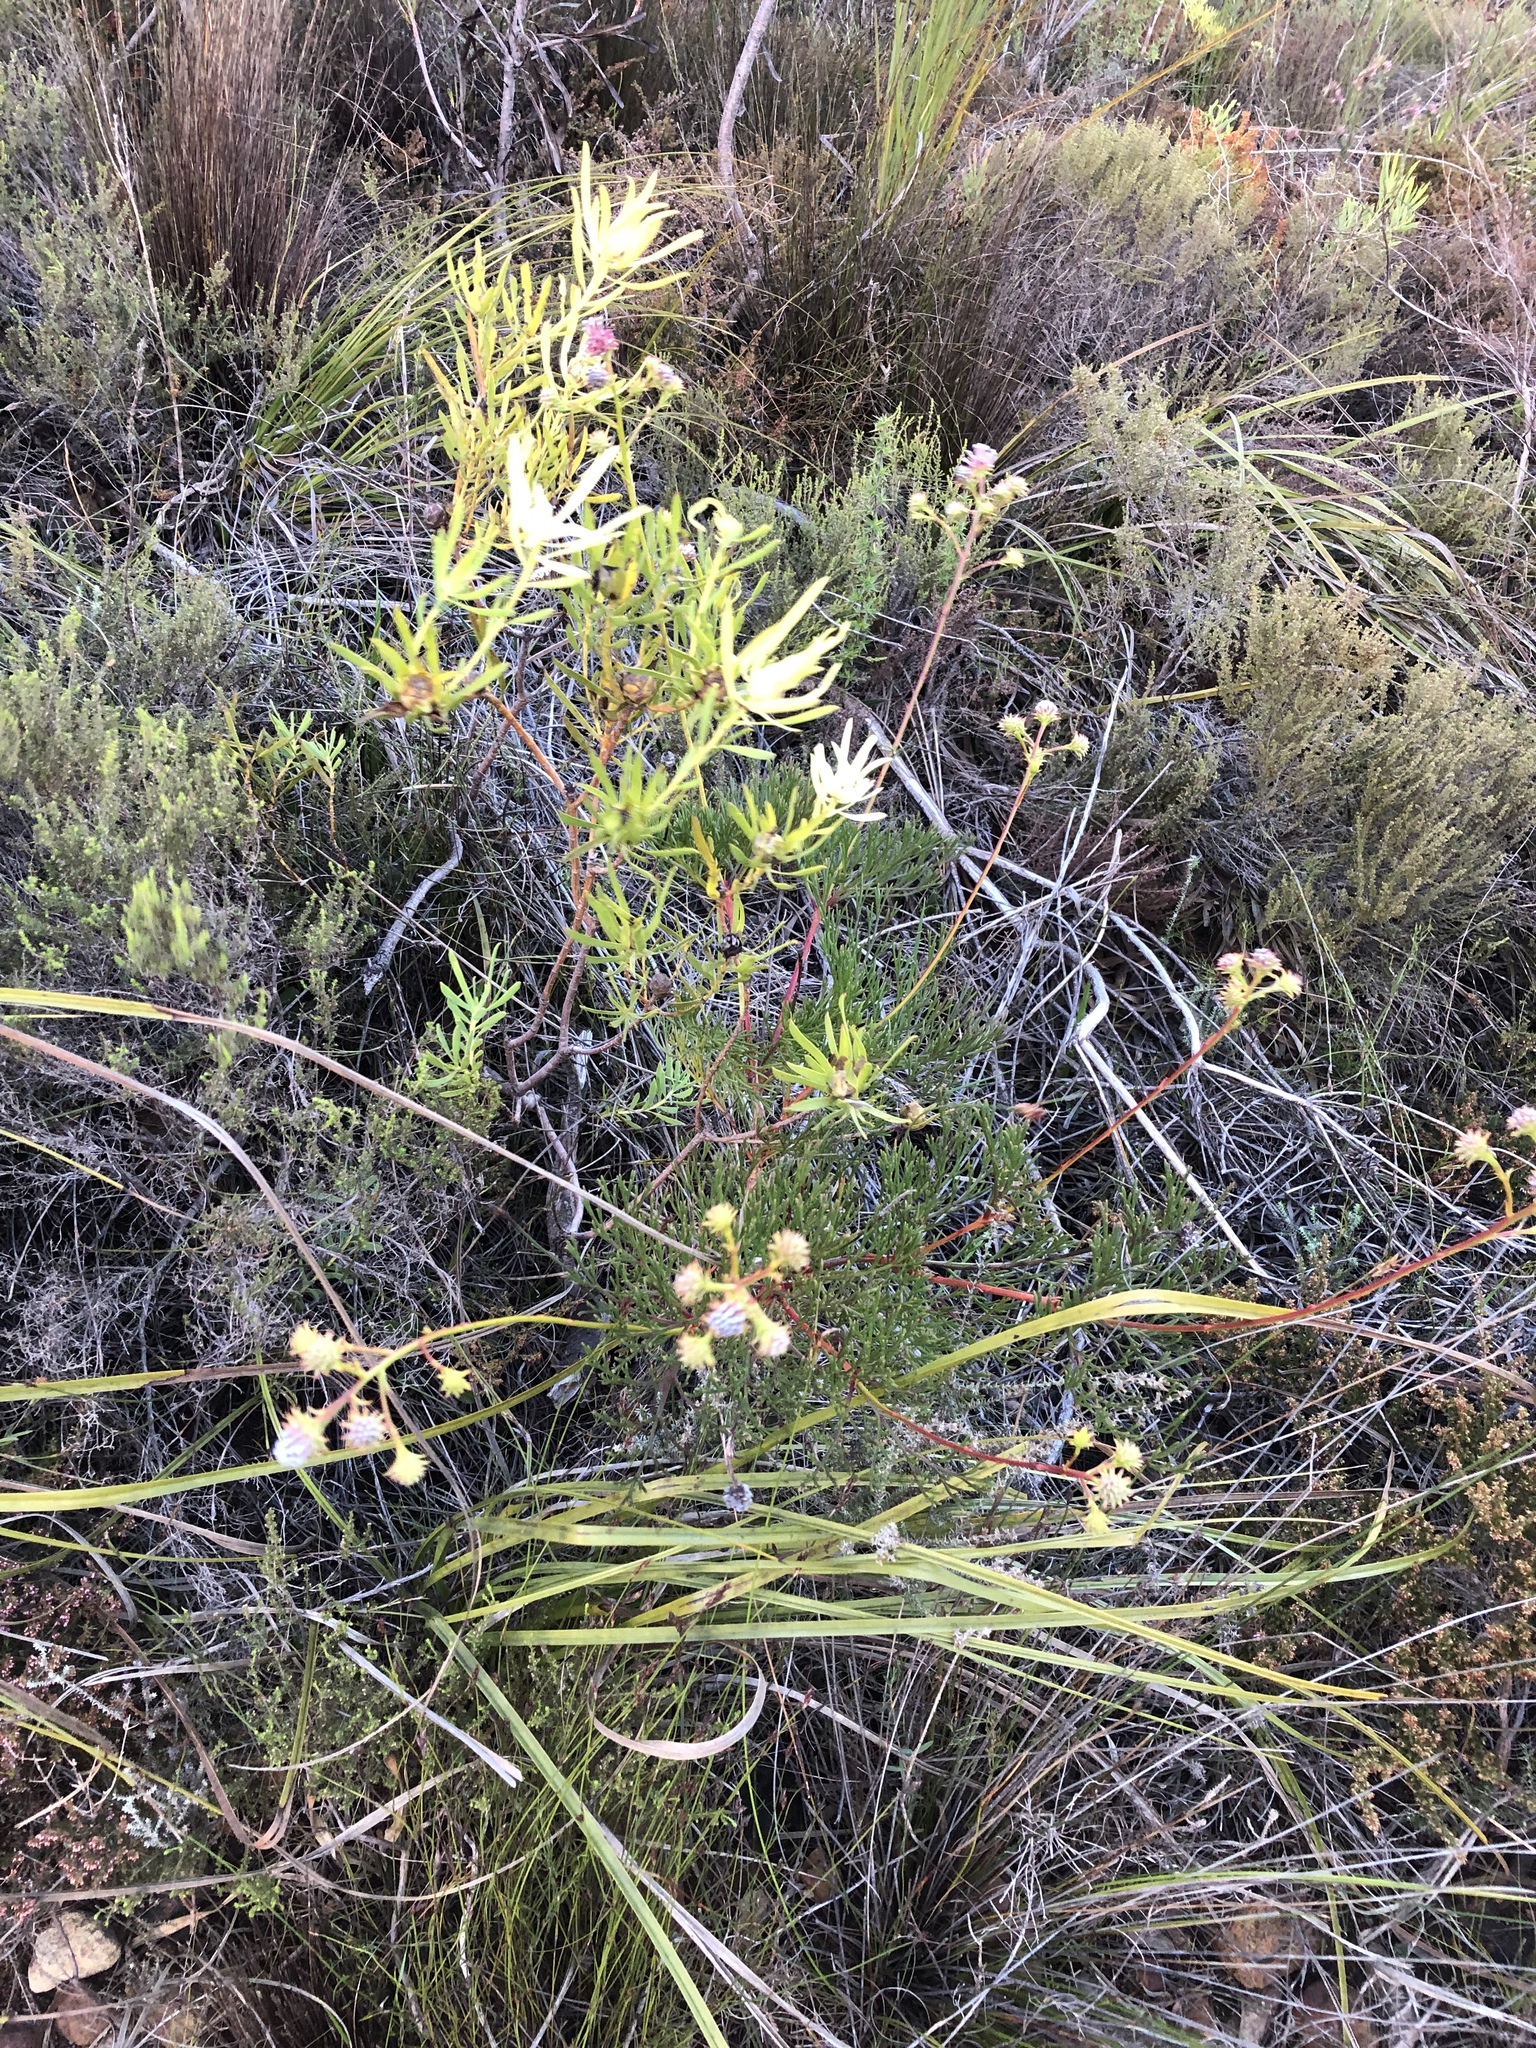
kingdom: Plantae
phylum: Tracheophyta
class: Magnoliopsida
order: Proteales
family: Proteaceae
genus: Serruria
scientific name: Serruria elongata
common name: Long-stalk spiderhead
